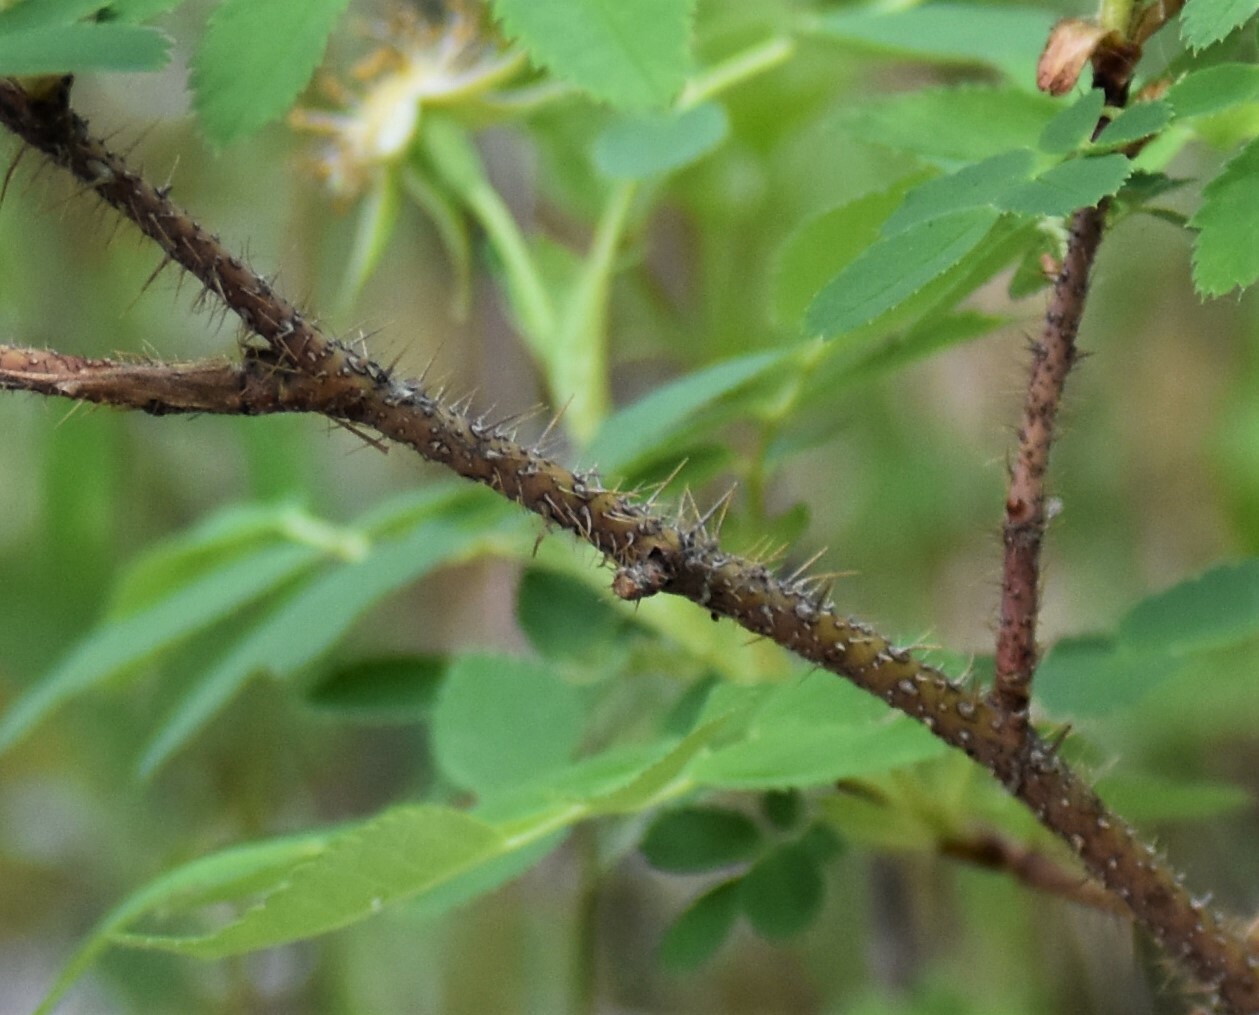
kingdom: Plantae
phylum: Tracheophyta
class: Magnoliopsida
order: Rosales
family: Rosaceae
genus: Rosa
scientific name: Rosa acicularis
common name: Prickly rose
